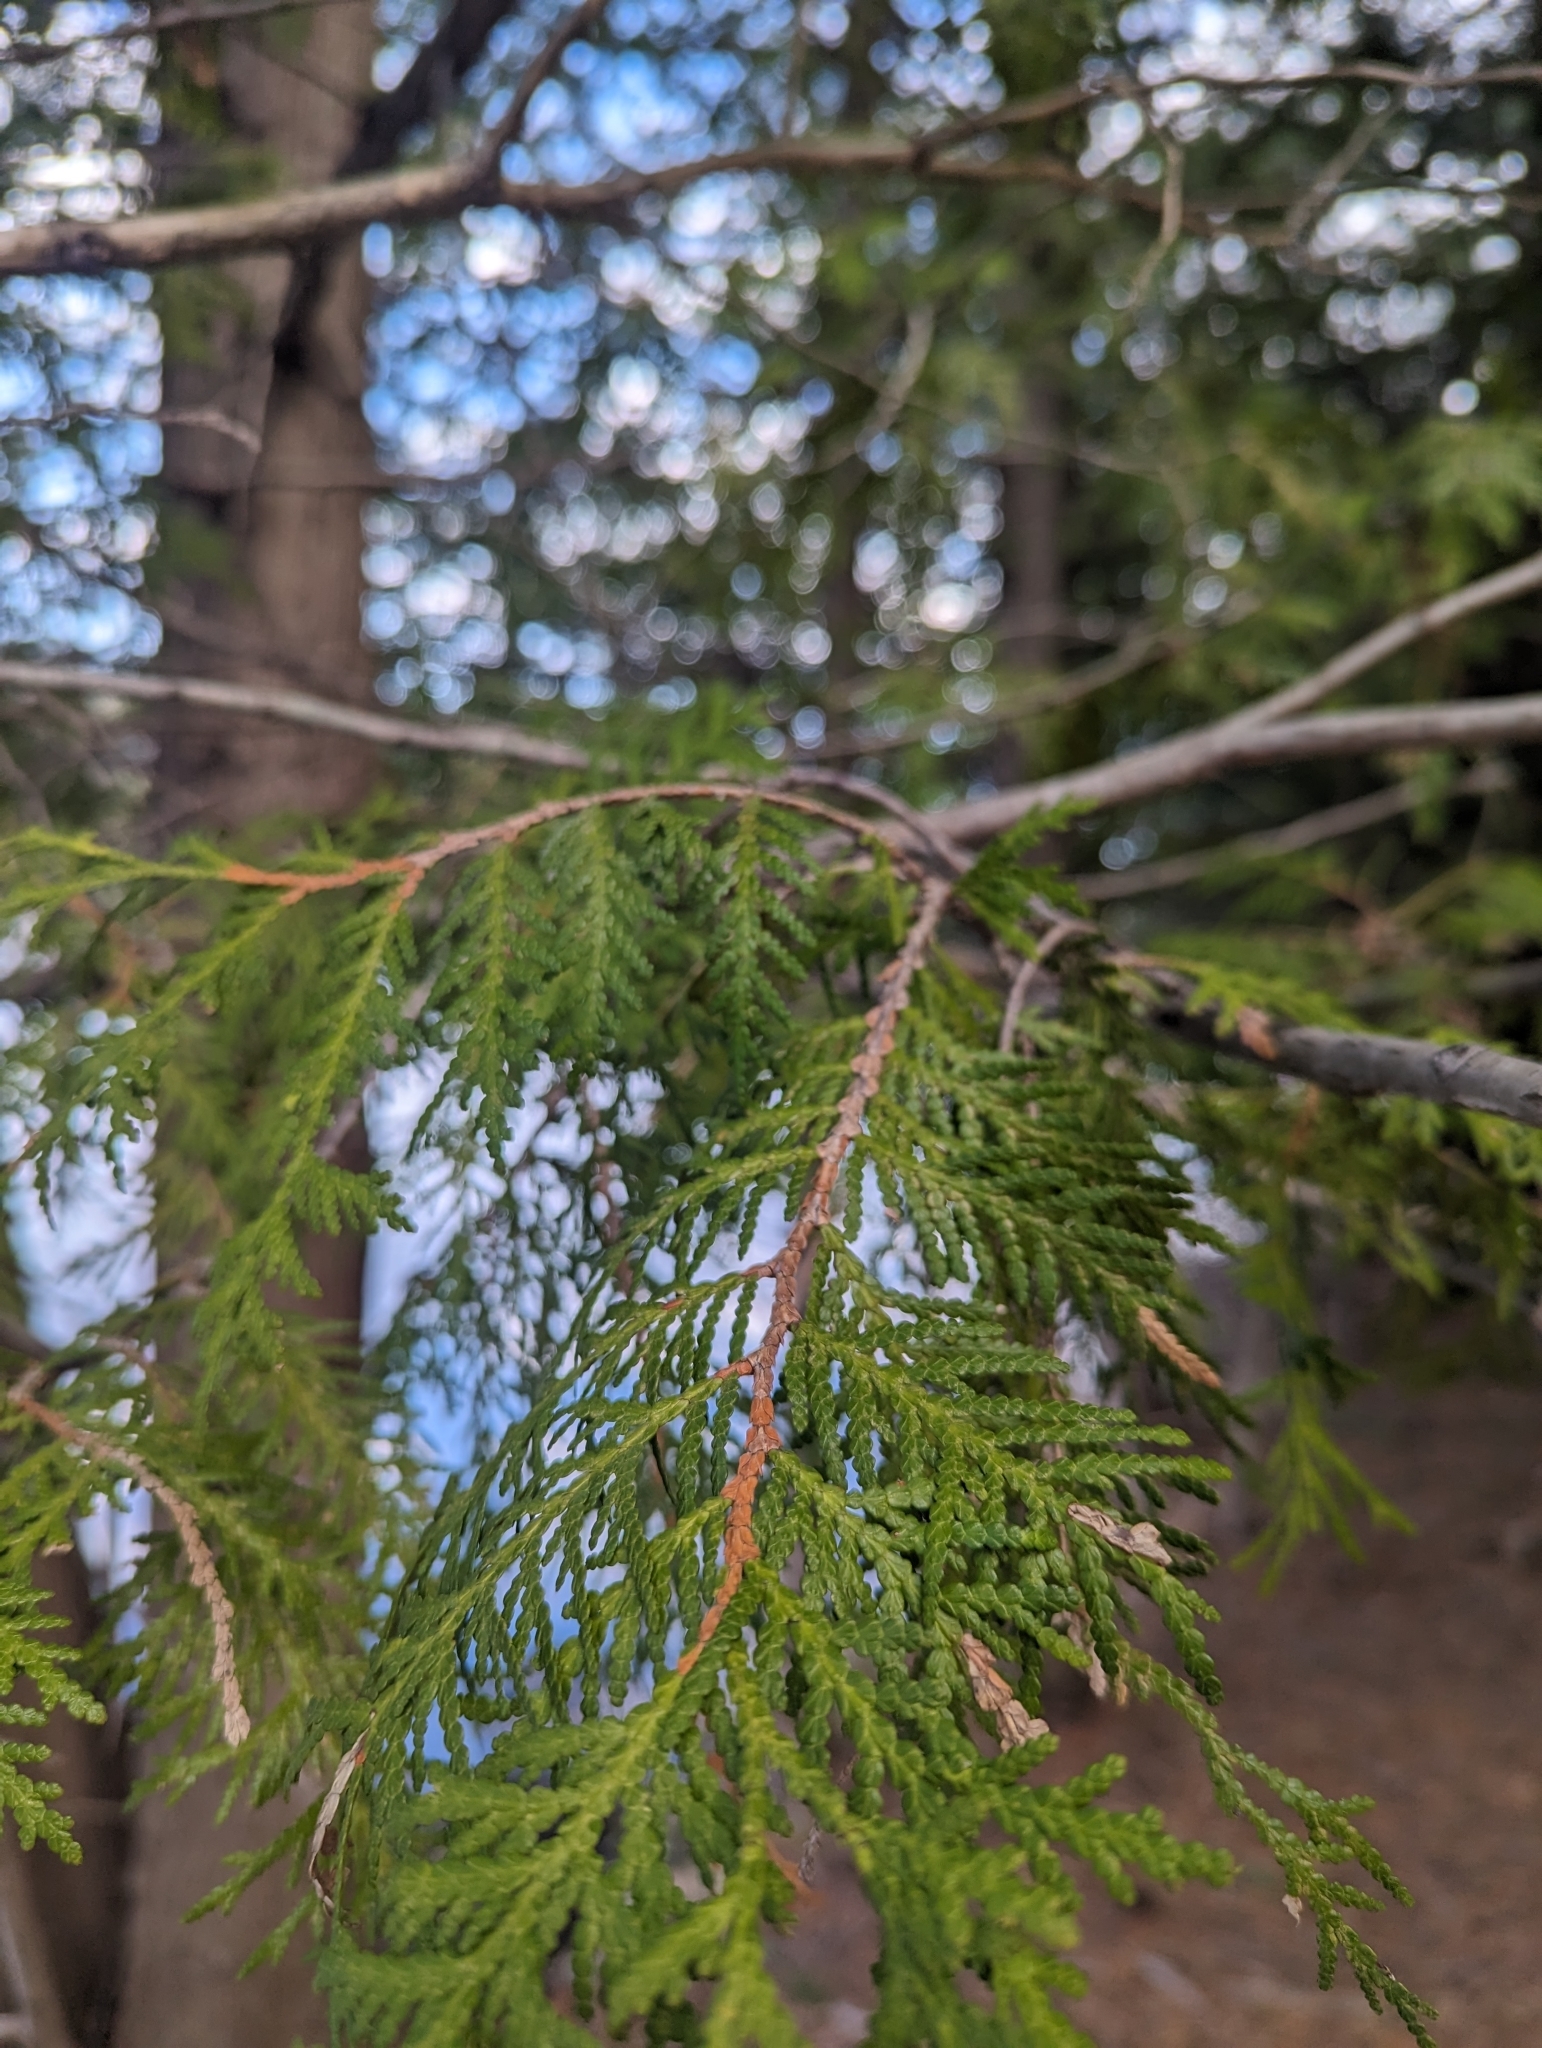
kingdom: Plantae
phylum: Tracheophyta
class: Pinopsida
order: Pinales
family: Cupressaceae
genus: Thuja
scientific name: Thuja occidentalis
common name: Northern white-cedar
